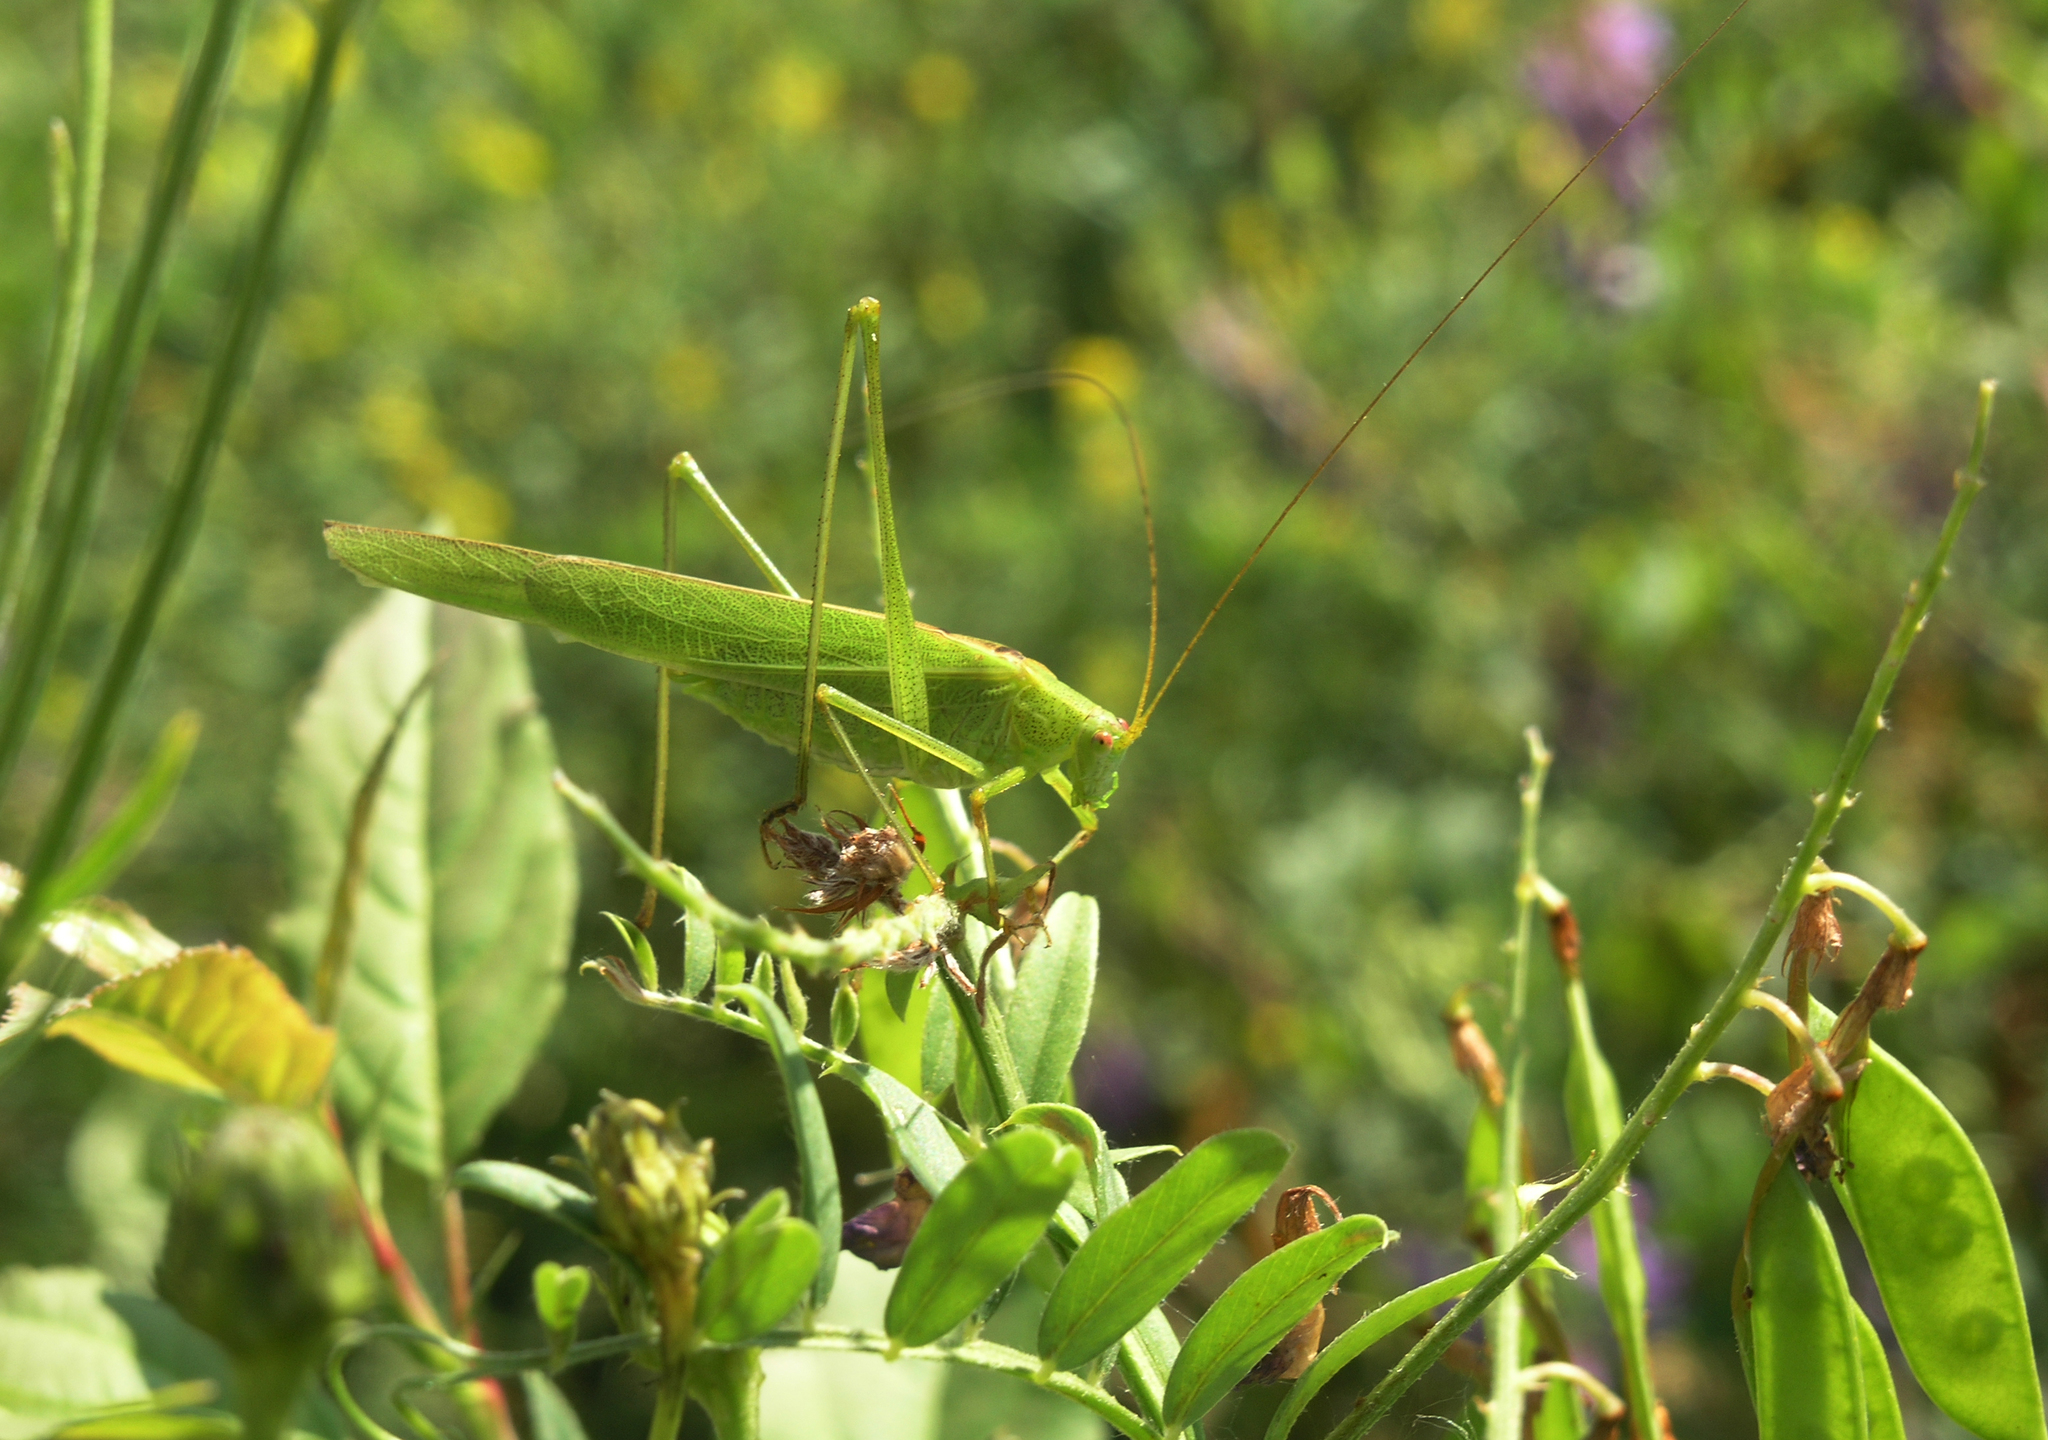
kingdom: Animalia
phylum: Arthropoda
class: Insecta
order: Orthoptera
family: Tettigoniidae
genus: Phaneroptera
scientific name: Phaneroptera falcata
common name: Sickle-bearing bush-cricket
